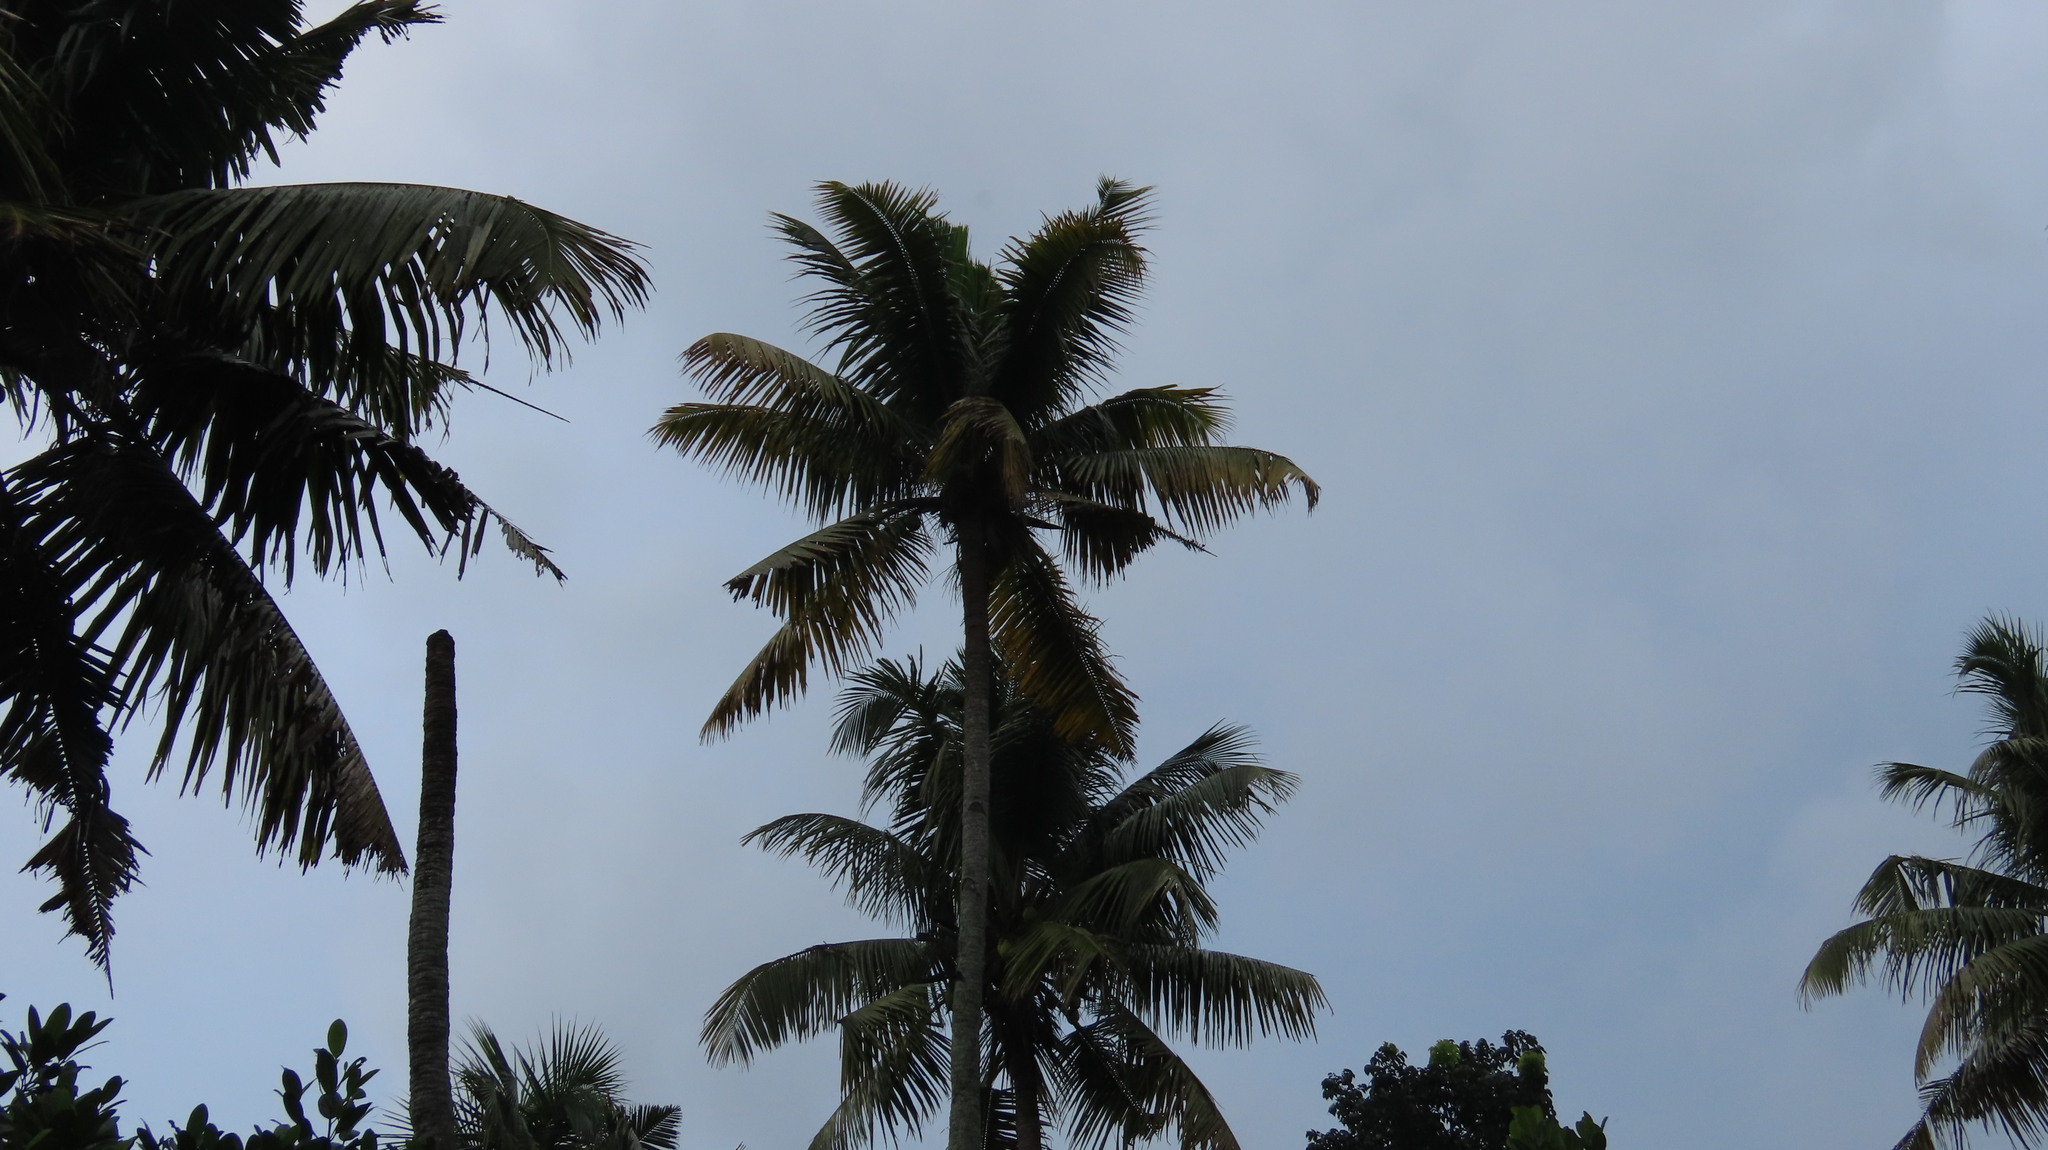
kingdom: Plantae
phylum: Tracheophyta
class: Liliopsida
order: Arecales
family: Arecaceae
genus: Cocos
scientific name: Cocos nucifera
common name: Coconut palm
